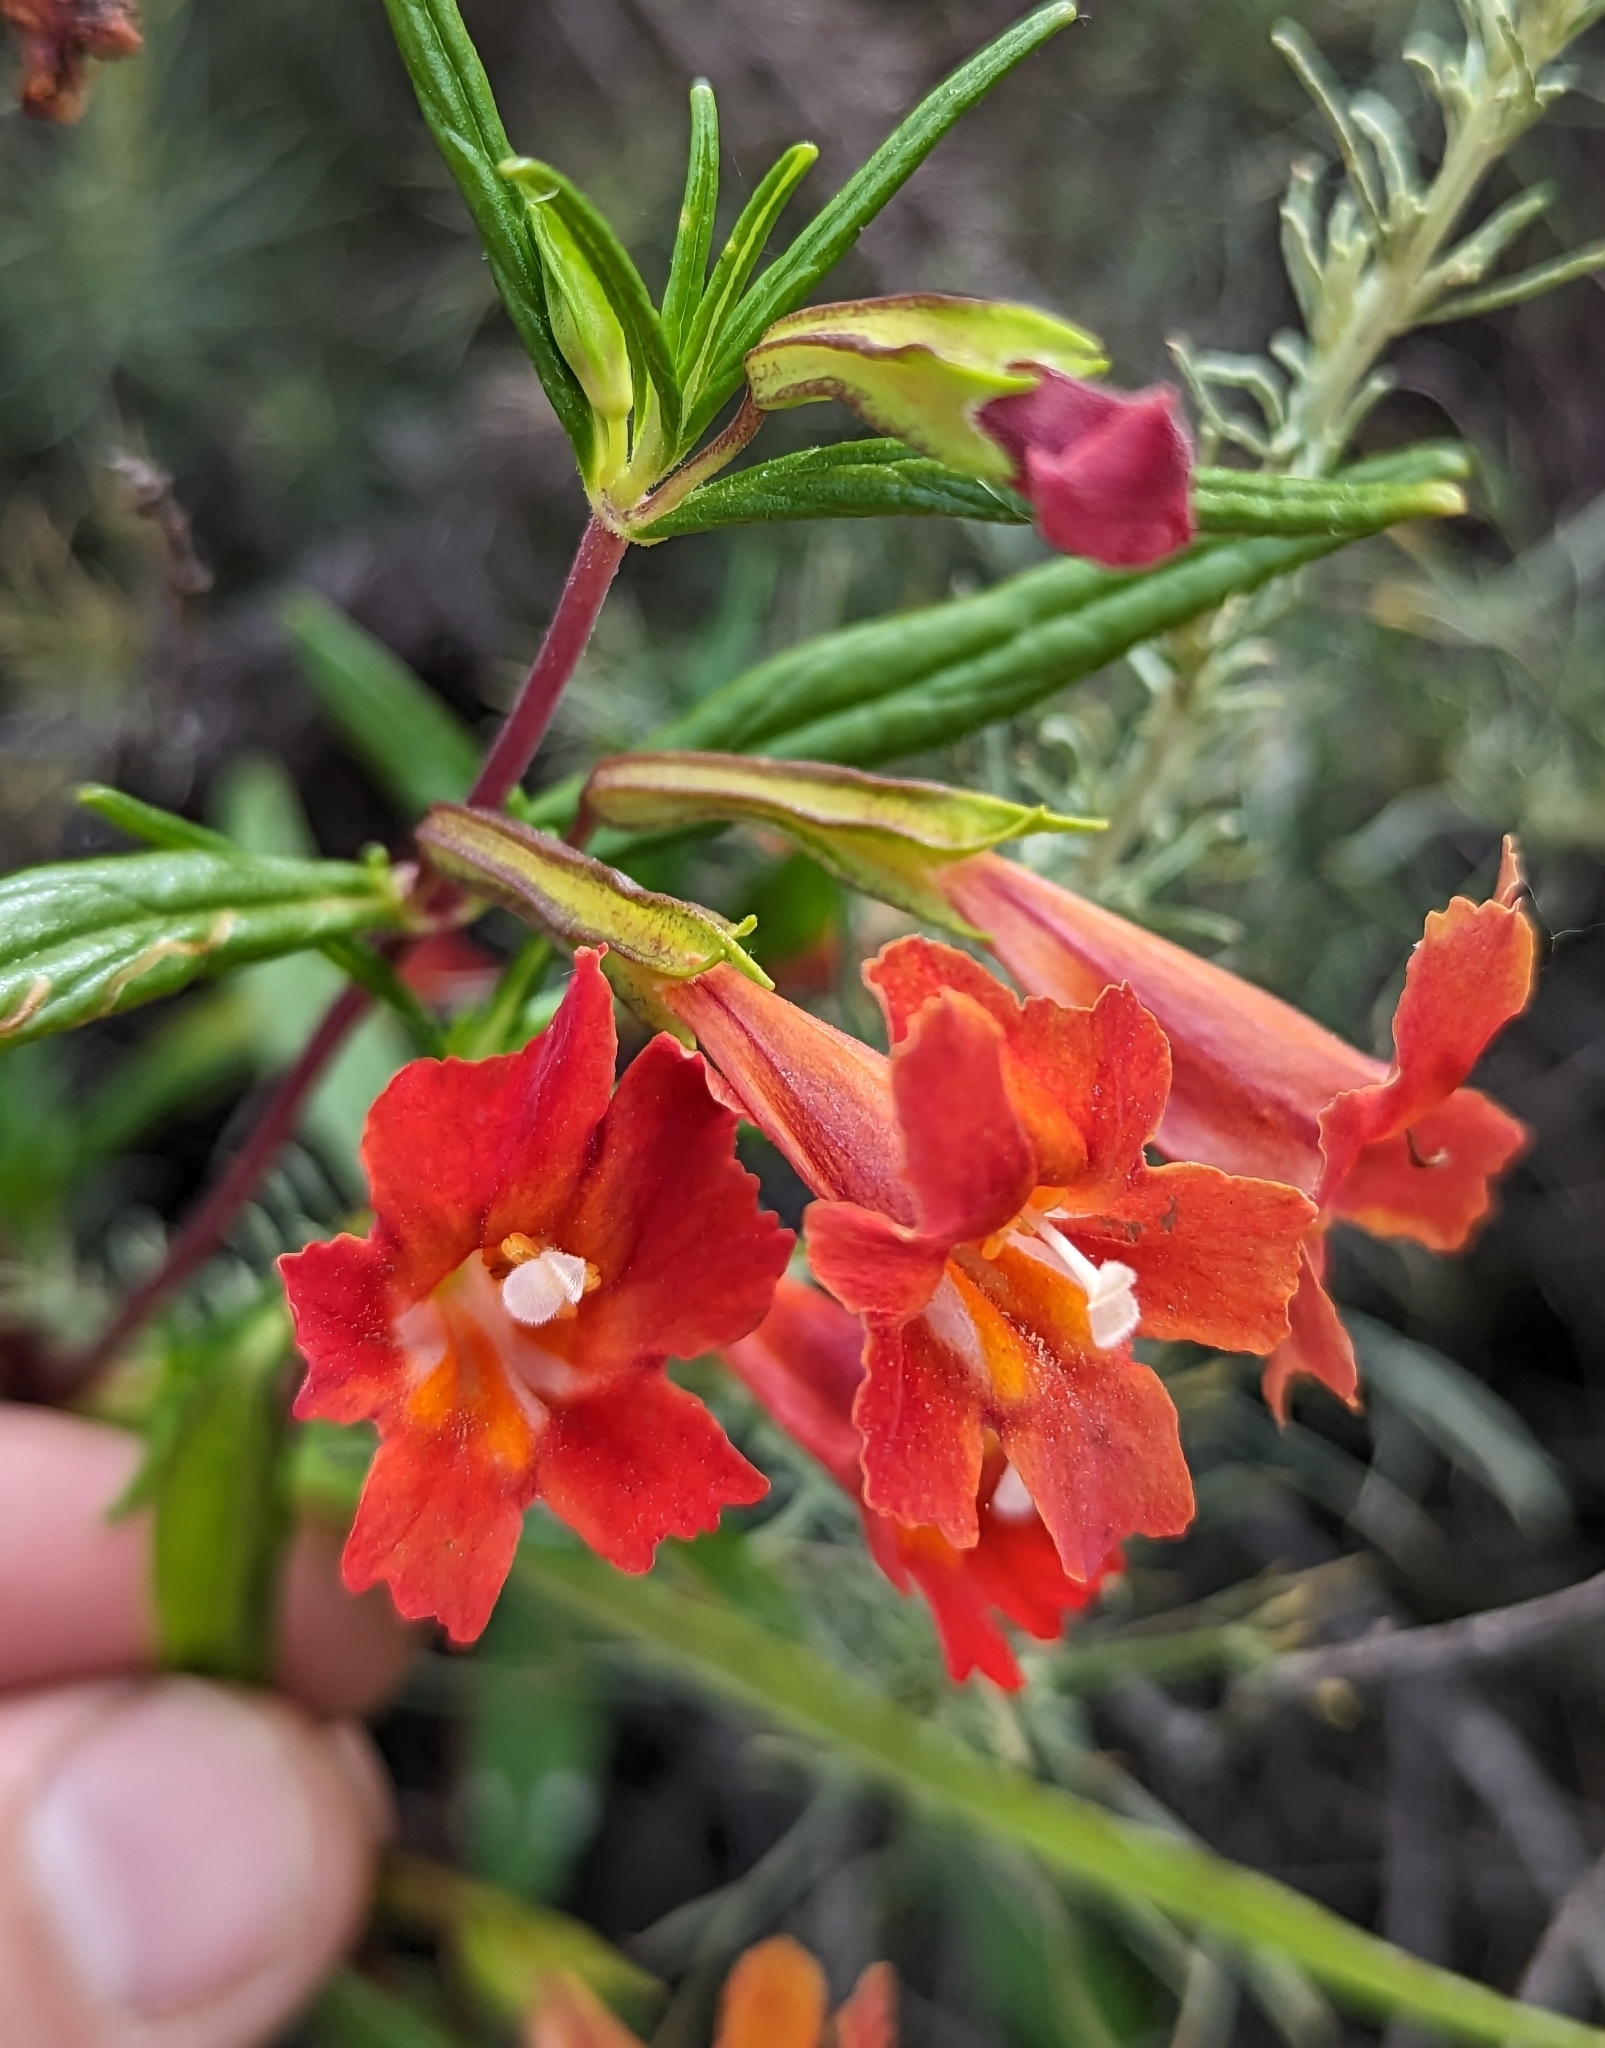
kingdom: Plantae
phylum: Tracheophyta
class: Magnoliopsida
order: Lamiales
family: Phrymaceae
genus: Diplacus
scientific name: Diplacus puniceus
